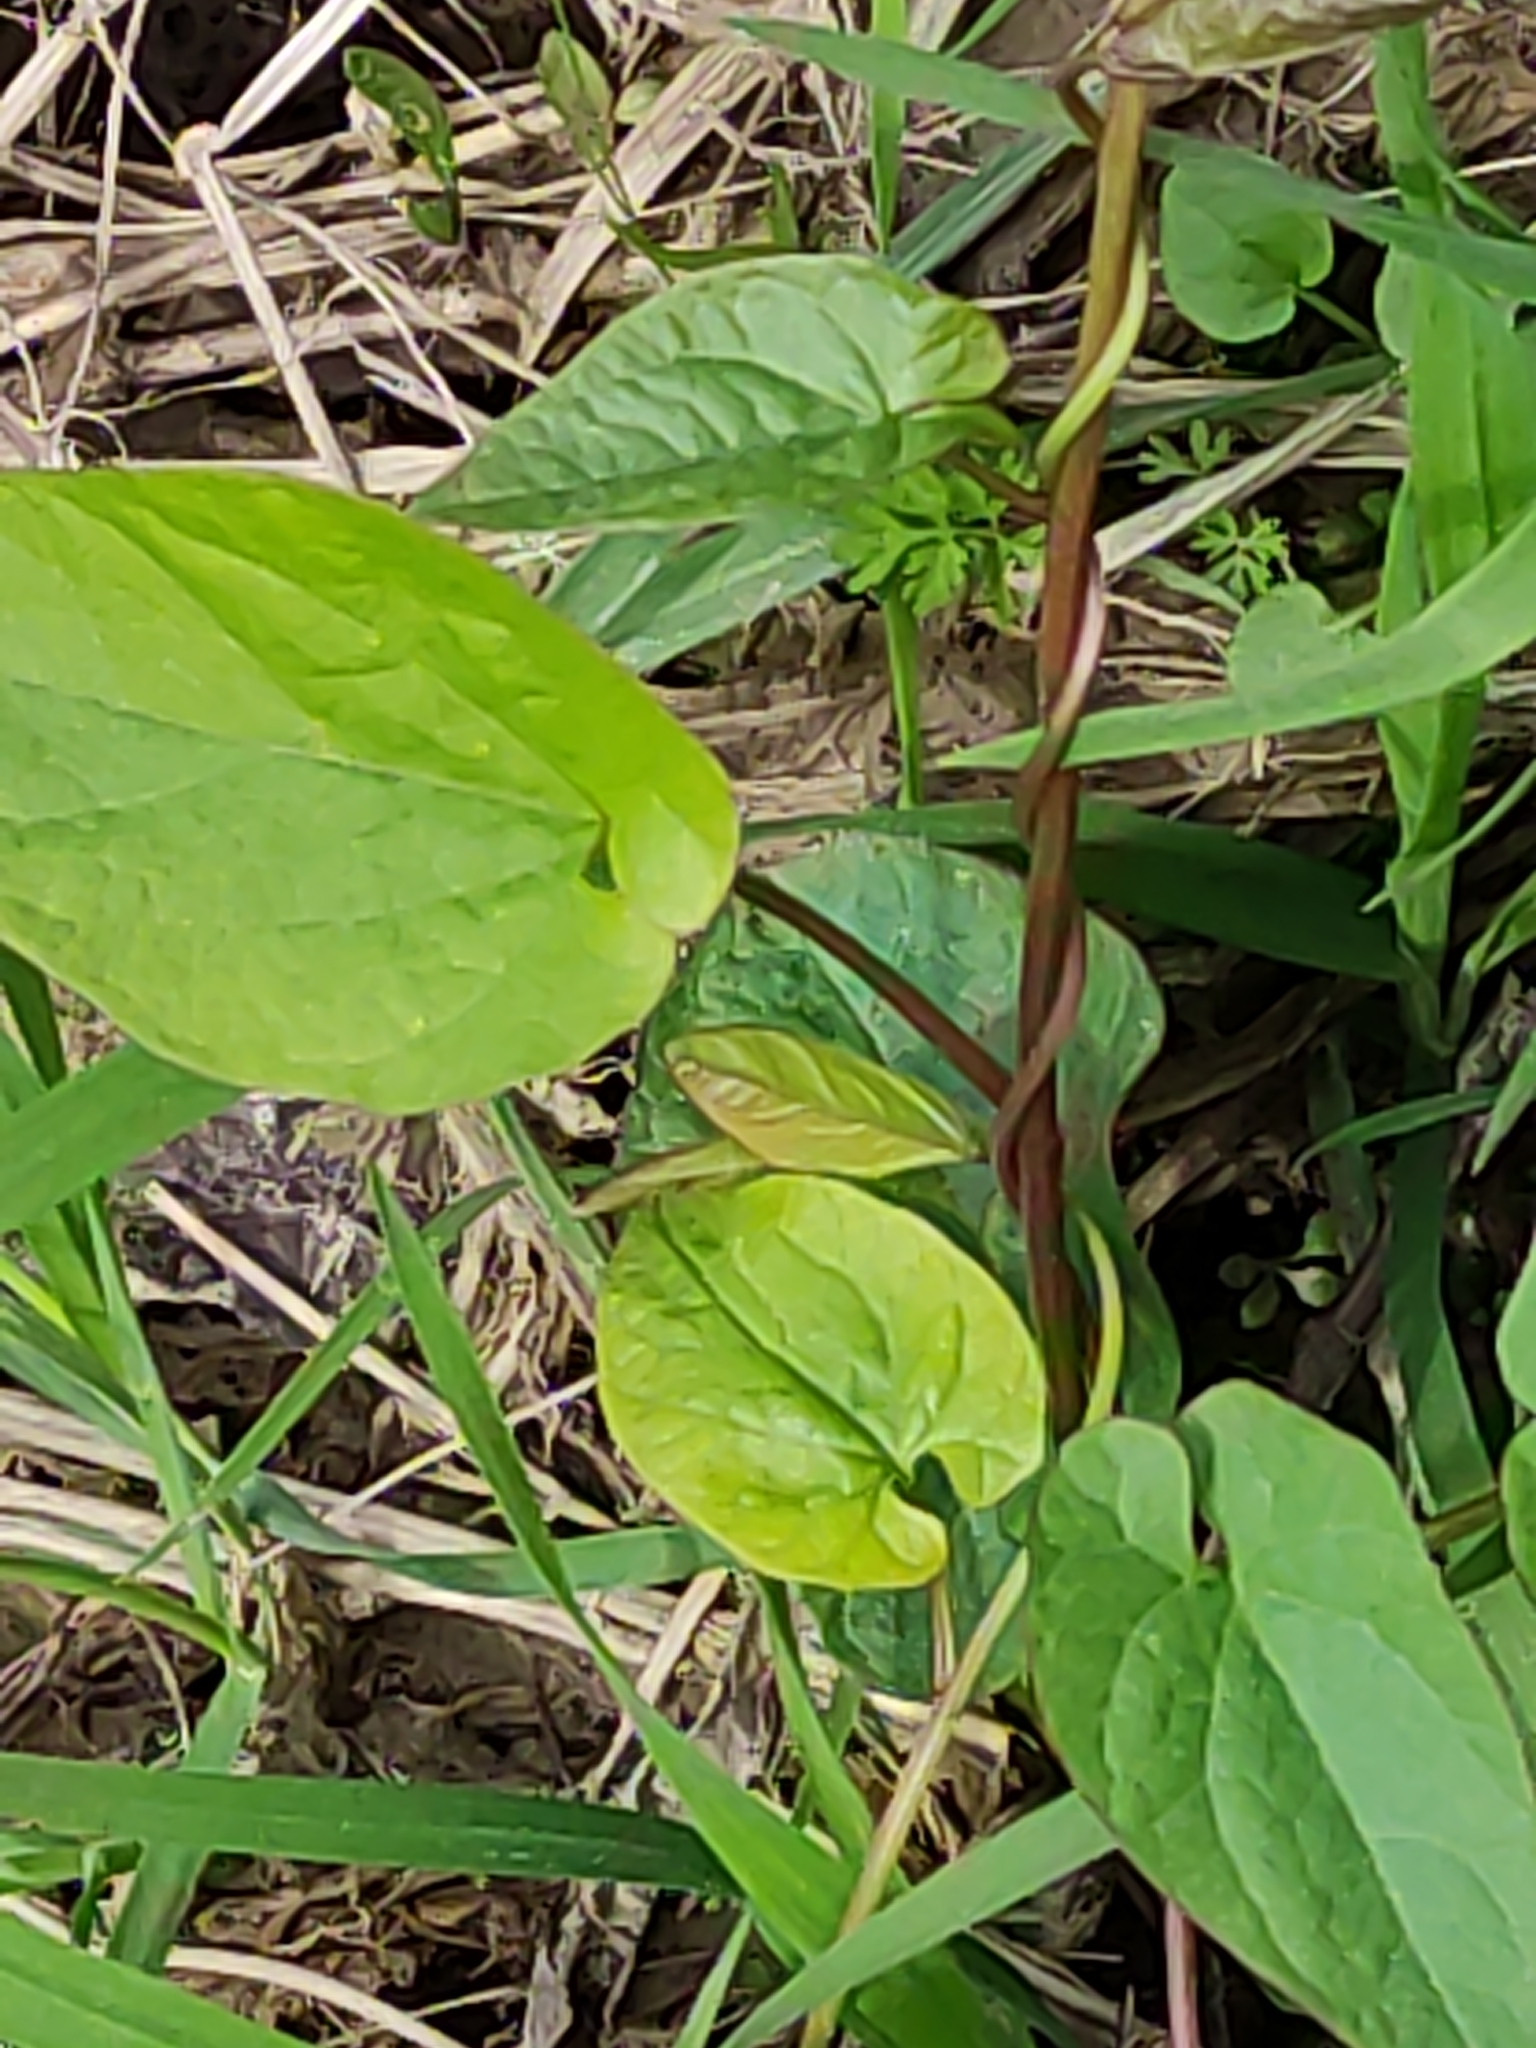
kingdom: Plantae
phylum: Tracheophyta
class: Magnoliopsida
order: Solanales
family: Convolvulaceae
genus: Calystegia
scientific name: Calystegia silvatica
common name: Large bindweed
